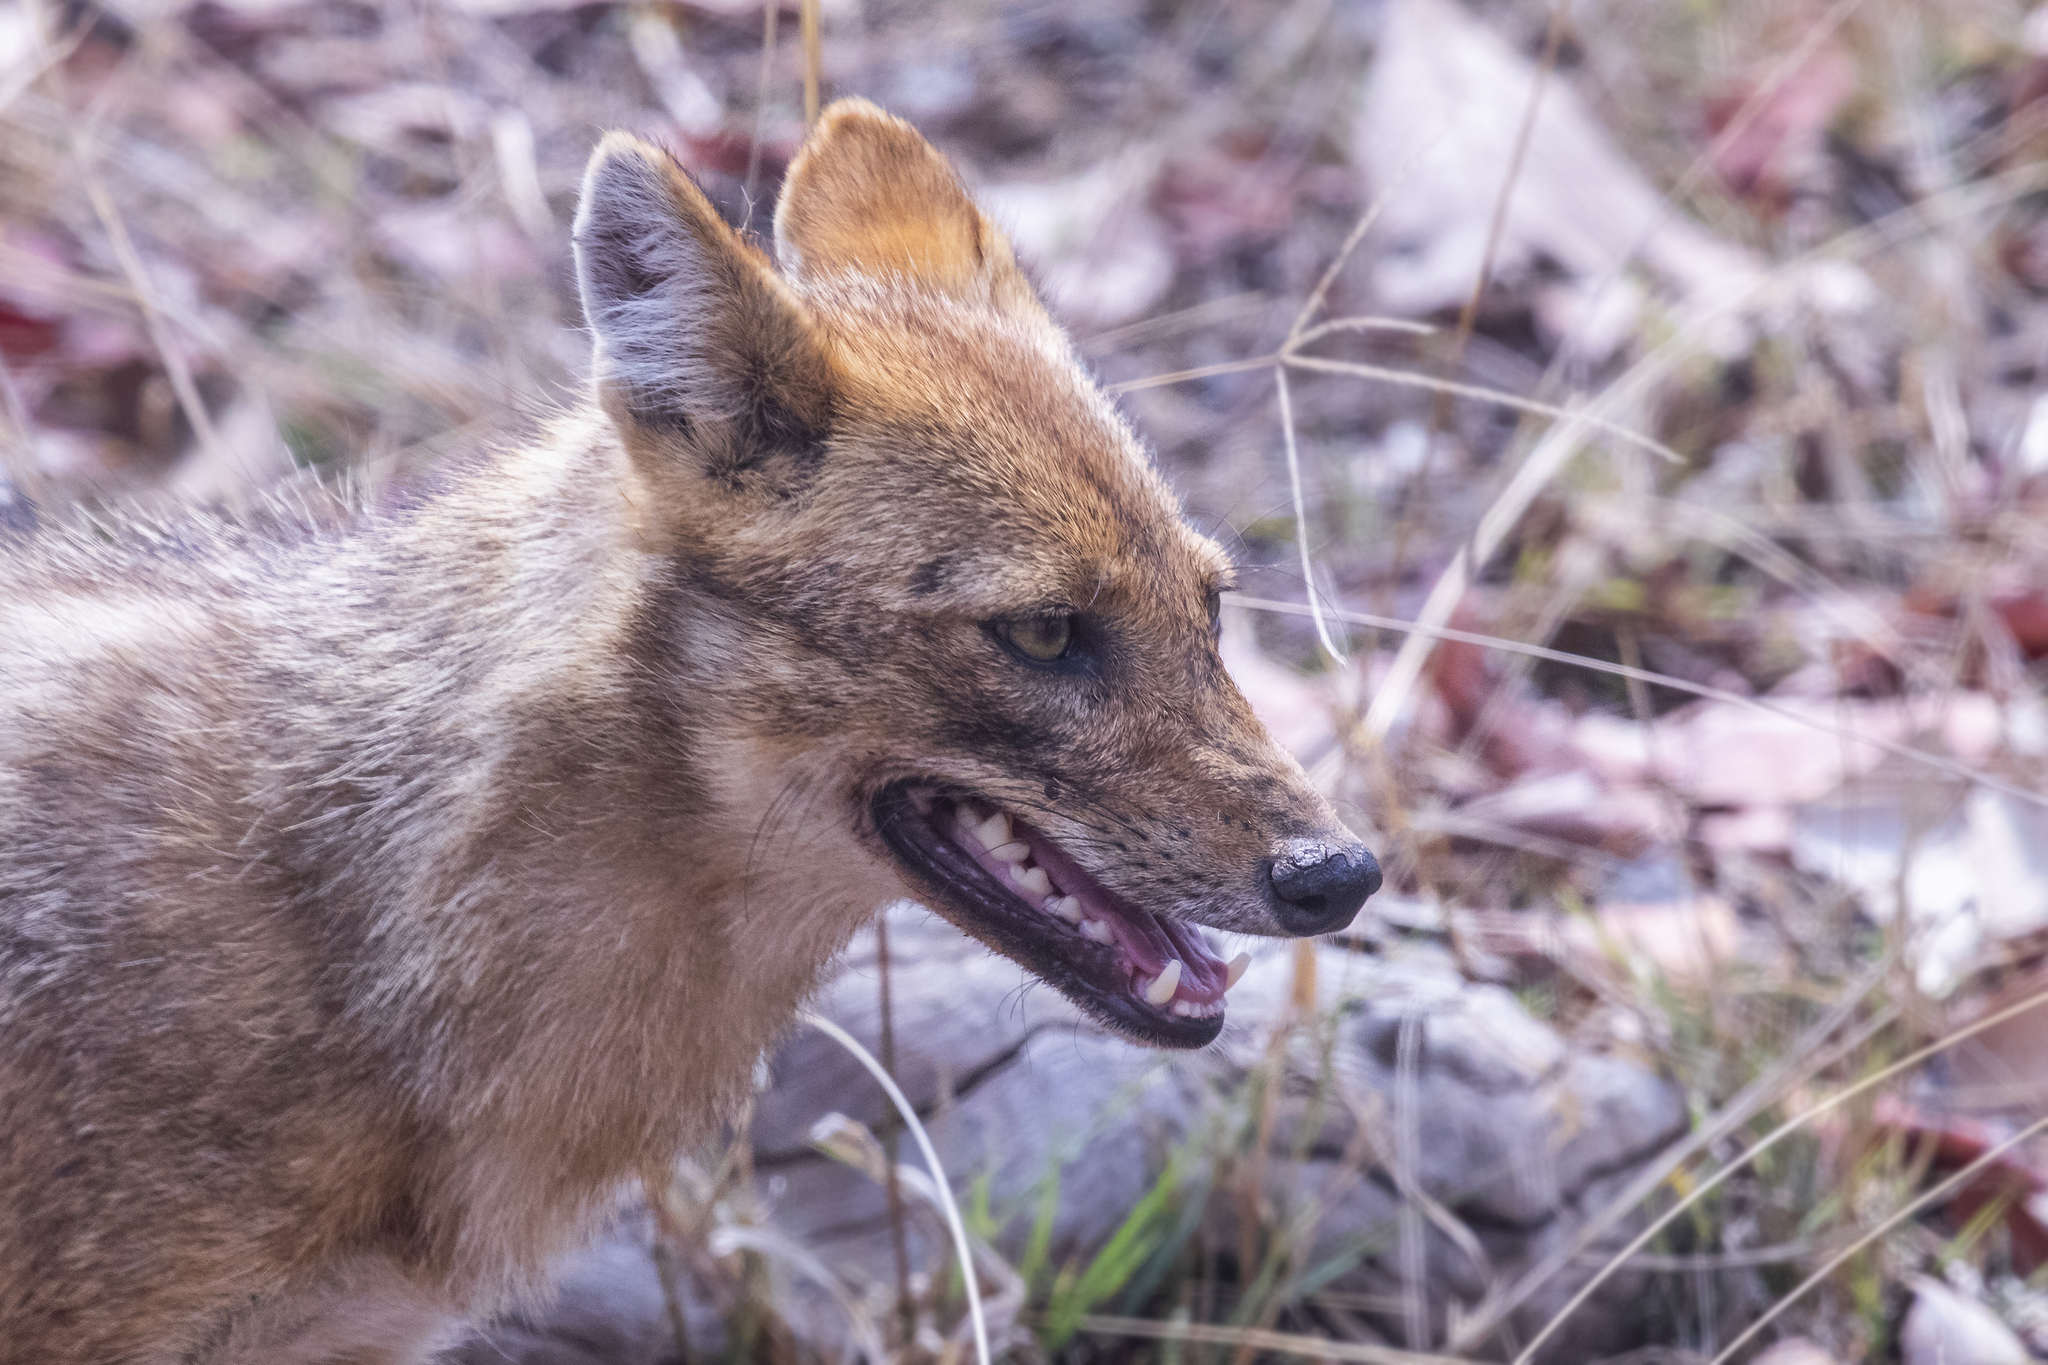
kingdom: Animalia
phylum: Chordata
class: Mammalia
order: Carnivora
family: Canidae
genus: Canis
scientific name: Canis aureus
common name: Golden jackal
